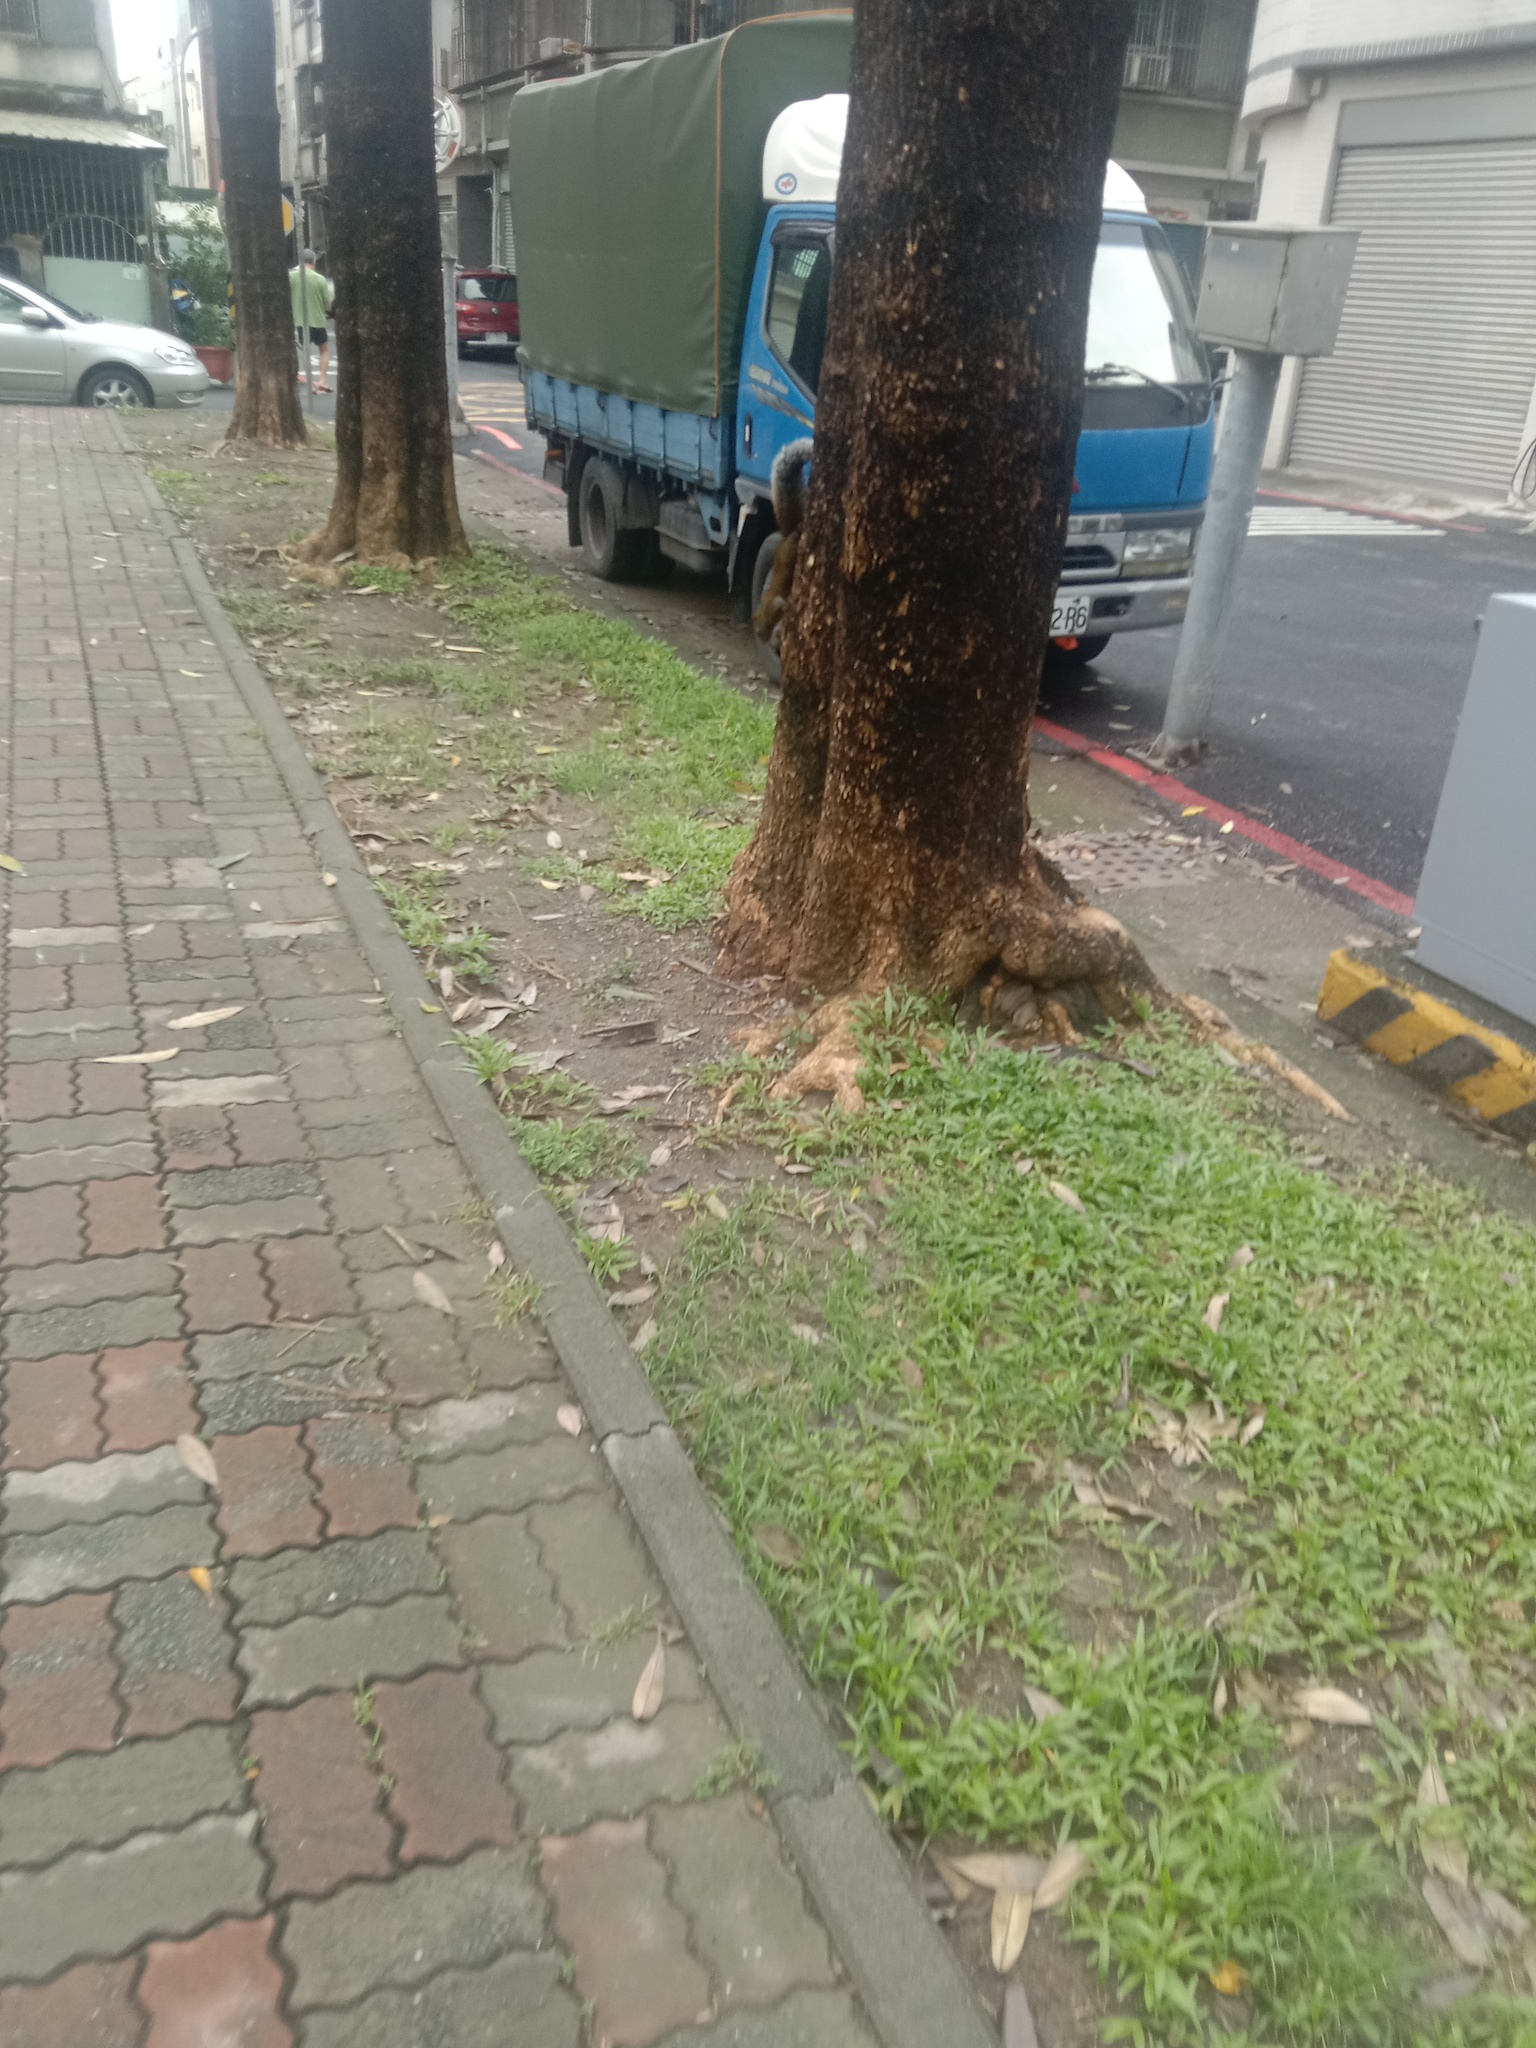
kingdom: Animalia
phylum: Chordata
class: Mammalia
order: Rodentia
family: Sciuridae
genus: Callosciurus
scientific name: Callosciurus erythraeus
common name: Pallas's squirrel
